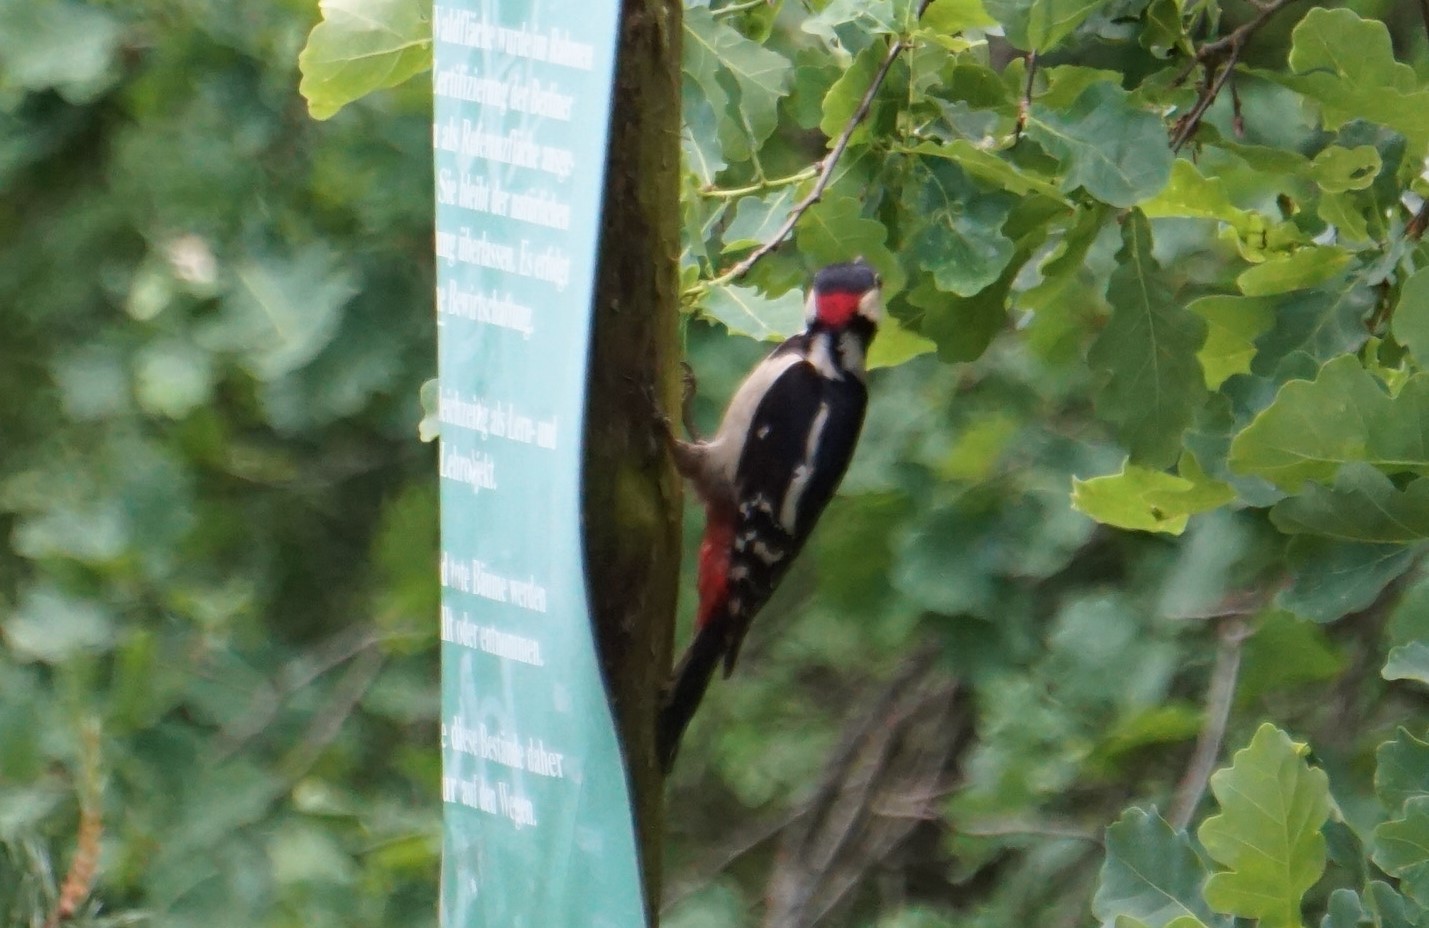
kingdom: Animalia
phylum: Chordata
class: Aves
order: Piciformes
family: Picidae
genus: Dendrocopos
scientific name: Dendrocopos major
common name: Great spotted woodpecker
